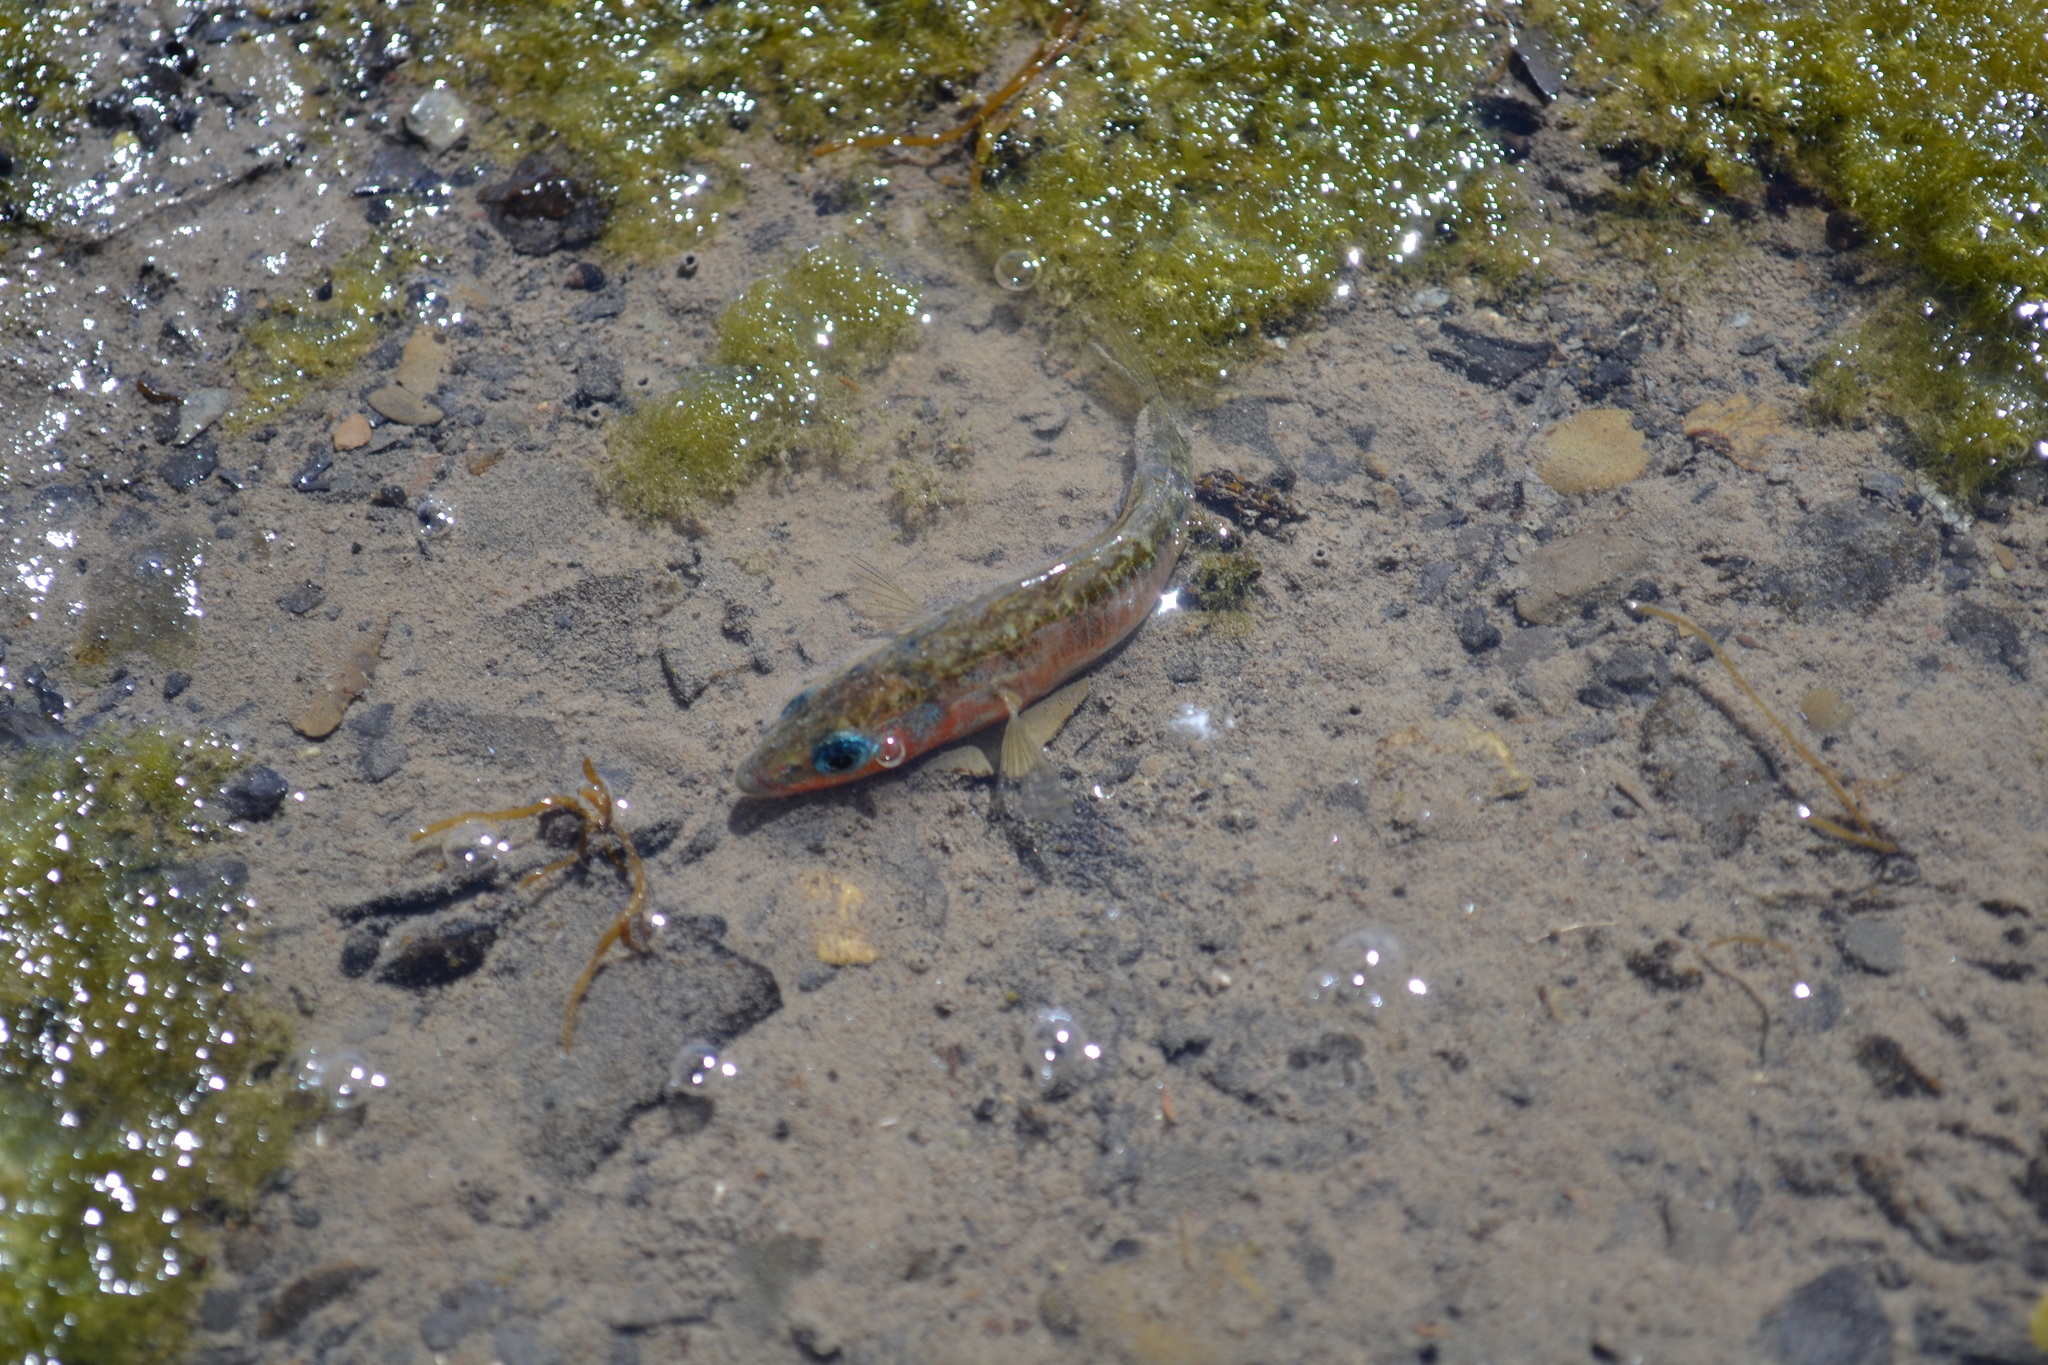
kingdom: Animalia
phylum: Chordata
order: Gasterosteiformes
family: Gasterosteidae
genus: Gasterosteus
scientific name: Gasterosteus aculeatus
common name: Three-spined stickleback
